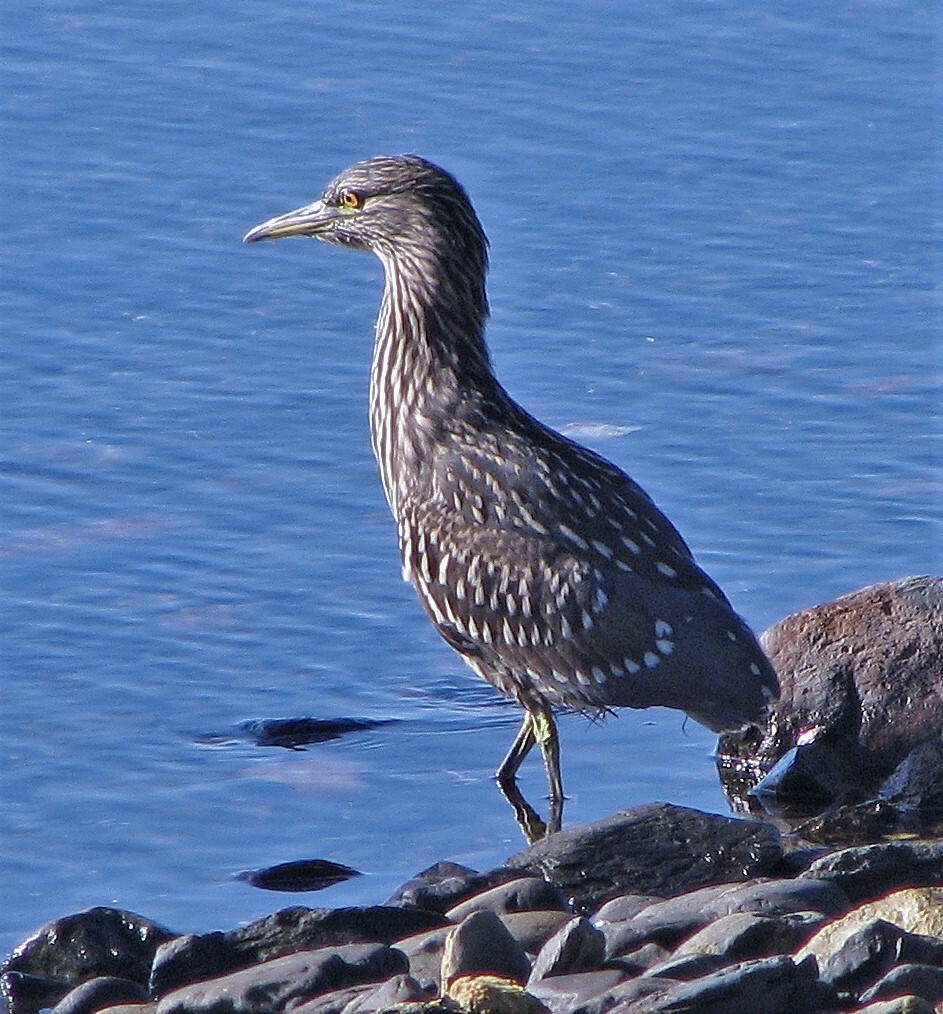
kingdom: Animalia
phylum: Chordata
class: Aves
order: Pelecaniformes
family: Ardeidae
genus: Nycticorax
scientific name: Nycticorax nycticorax
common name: Black-crowned night heron
